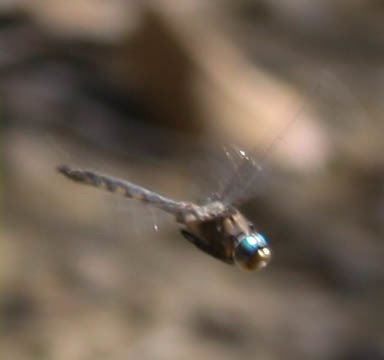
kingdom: Animalia
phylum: Arthropoda
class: Insecta
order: Odonata
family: Corduliidae
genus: Epitheca
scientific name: Epitheca canis
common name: Beaverpond baskettail
